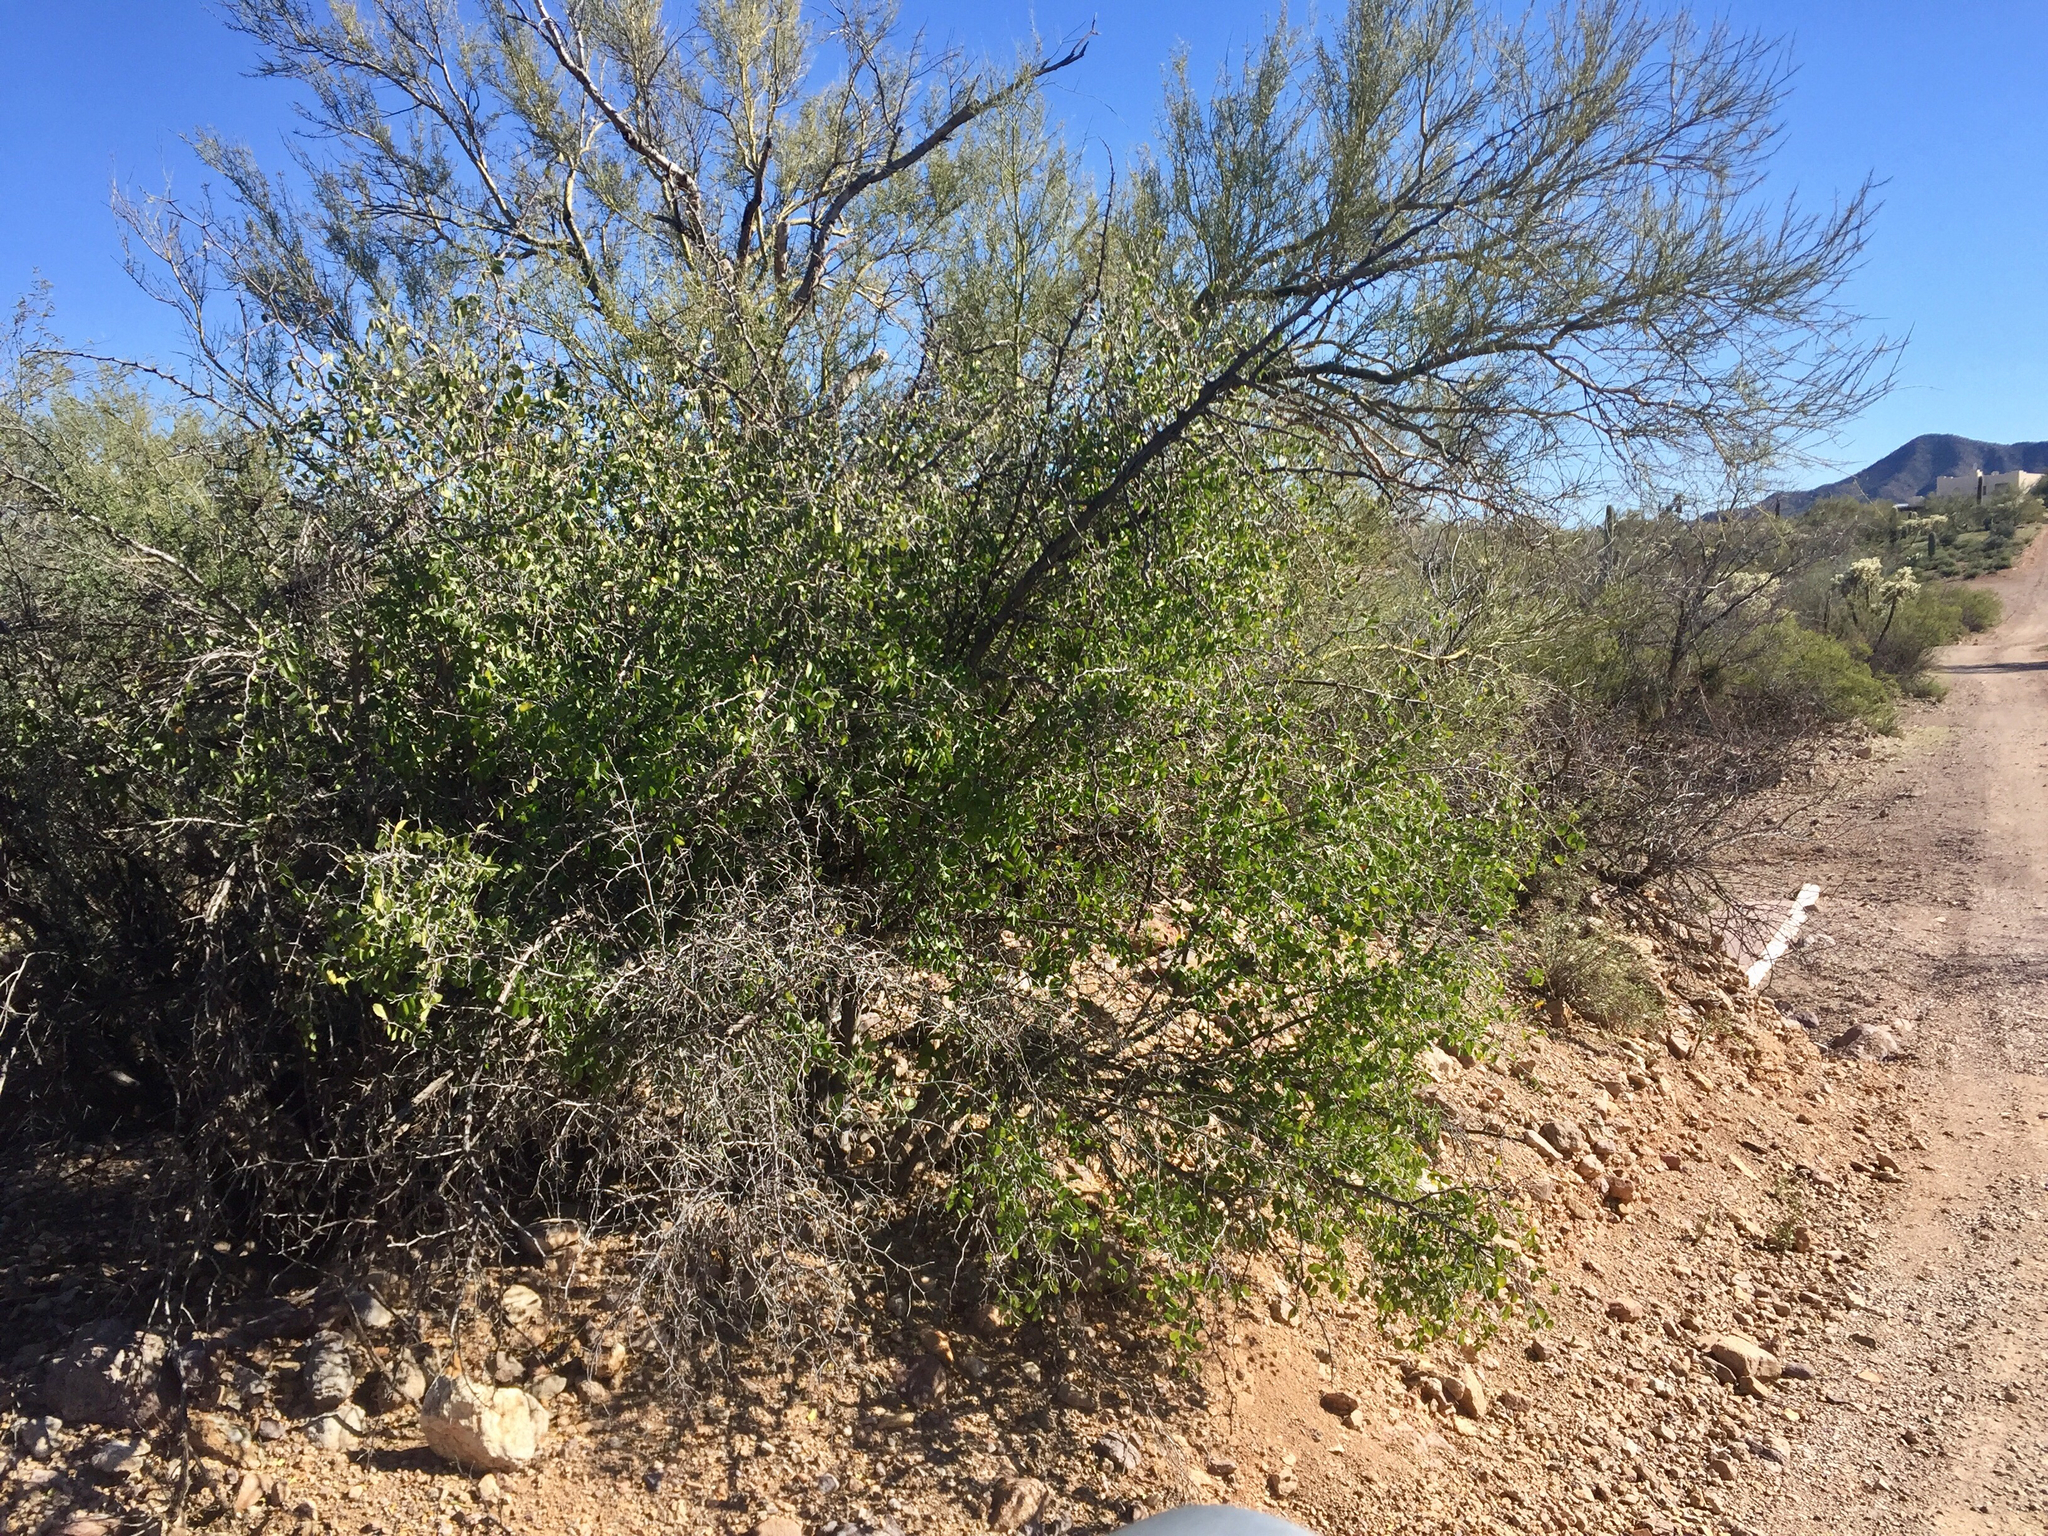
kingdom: Plantae
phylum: Tracheophyta
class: Magnoliopsida
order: Rosales
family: Cannabaceae
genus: Celtis
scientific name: Celtis pallida
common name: Desert hackberry
